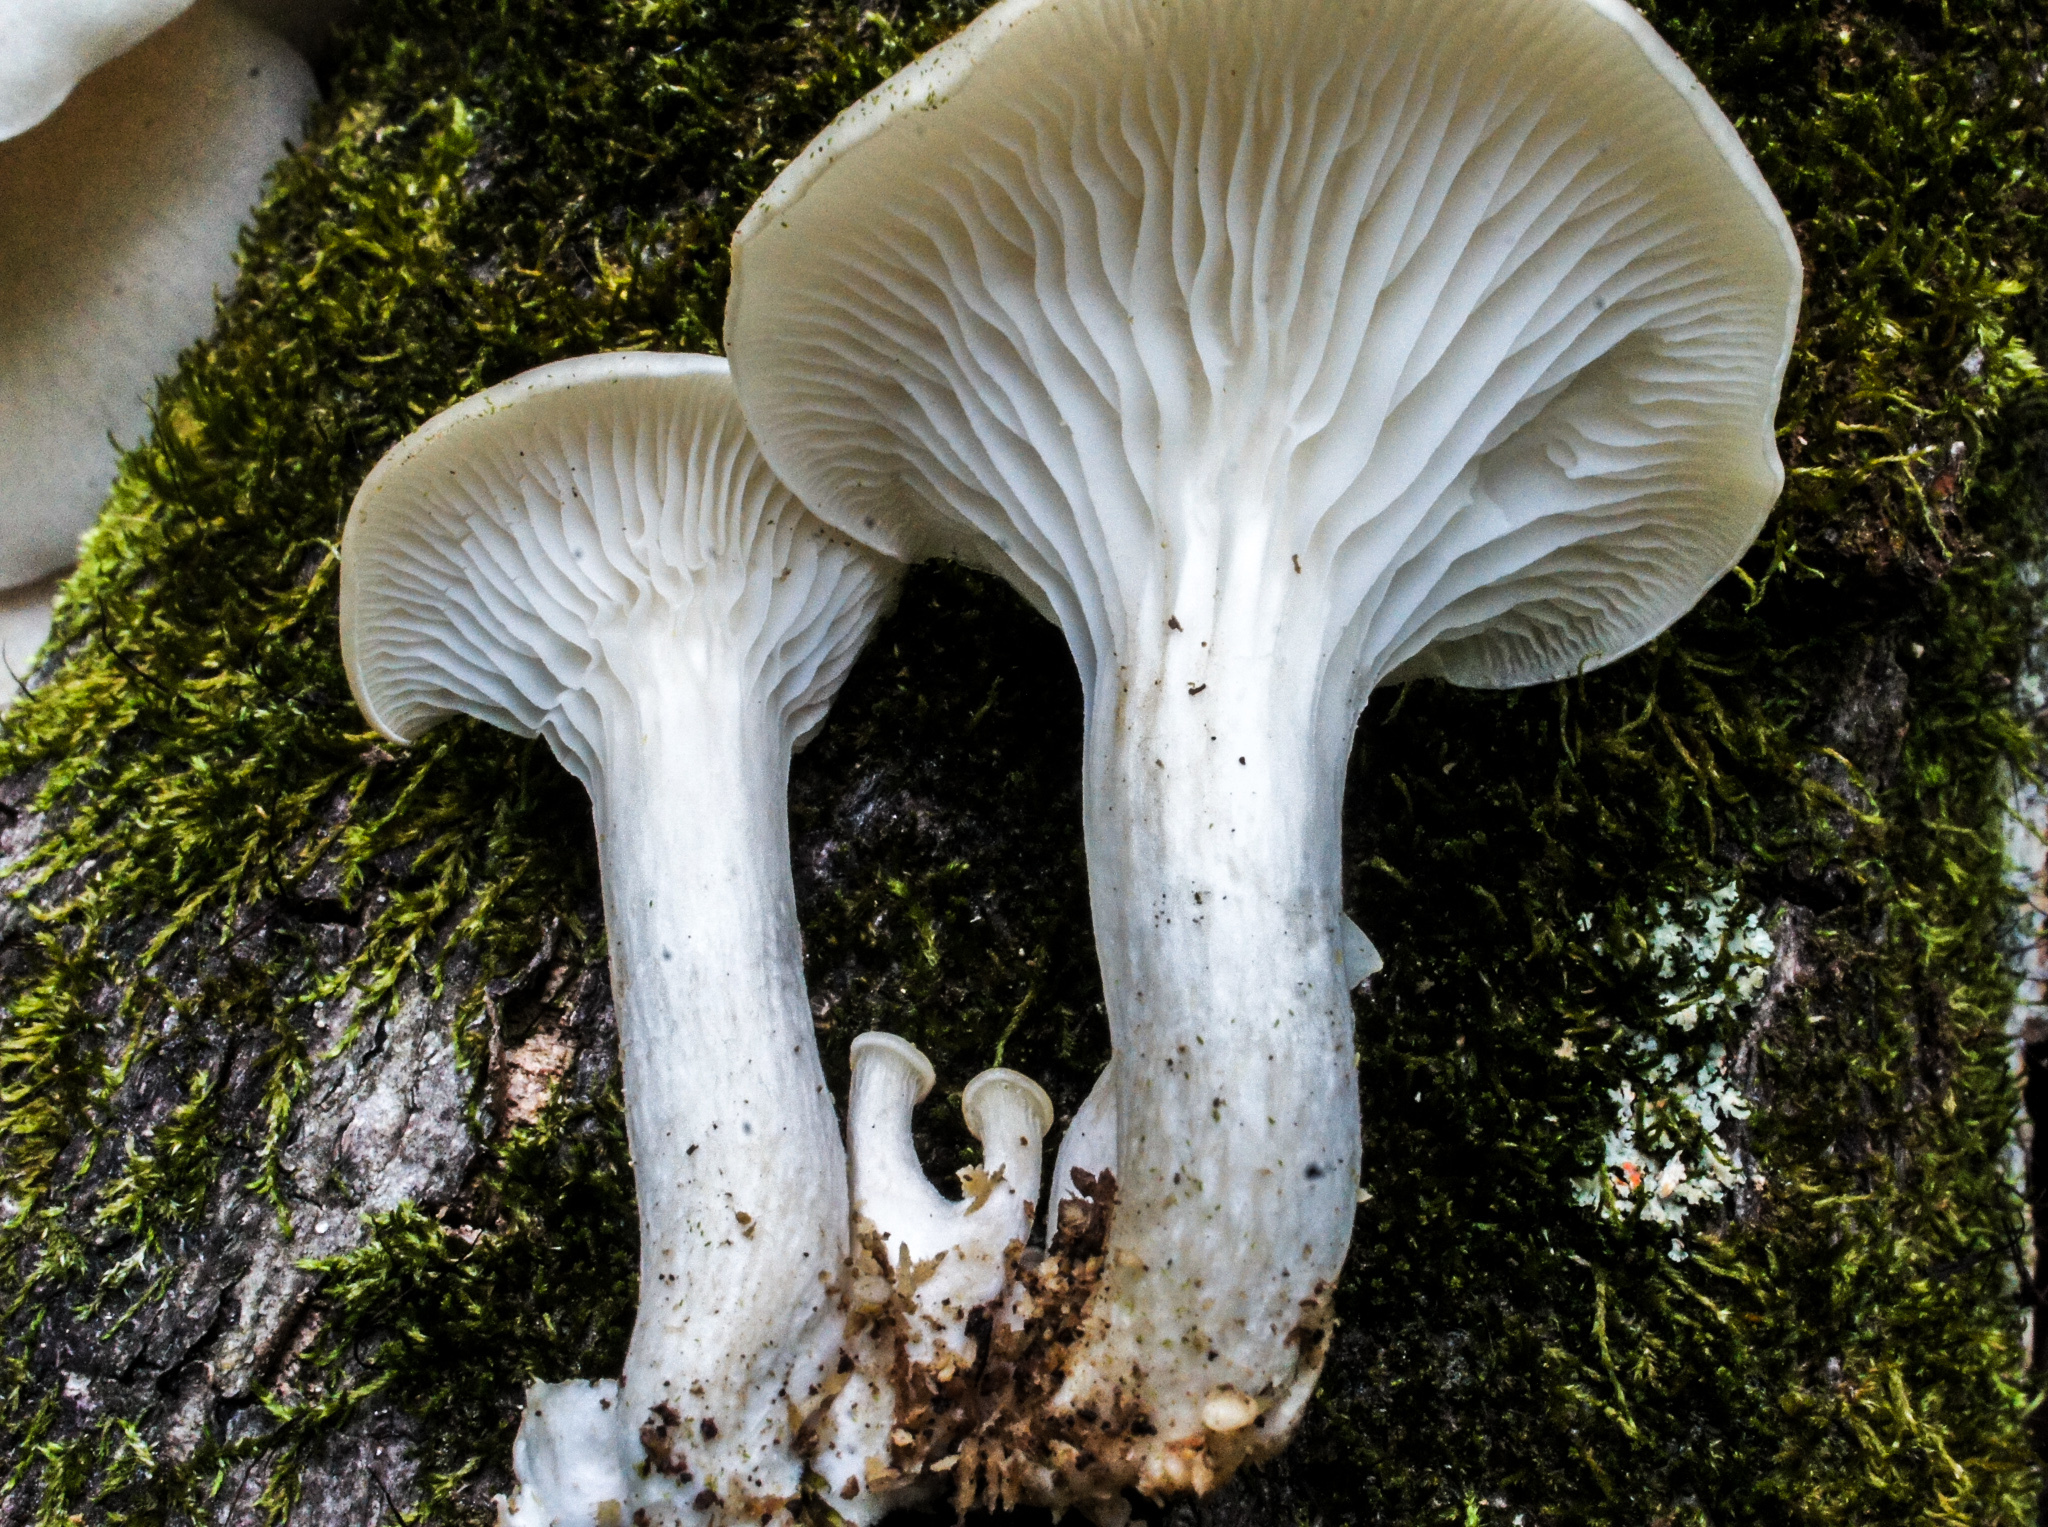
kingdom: Fungi
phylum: Basidiomycota
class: Agaricomycetes
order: Agaricales
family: Pleurotaceae
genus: Pleurotus
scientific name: Pleurotus pulmonarius
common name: Pale oyster
